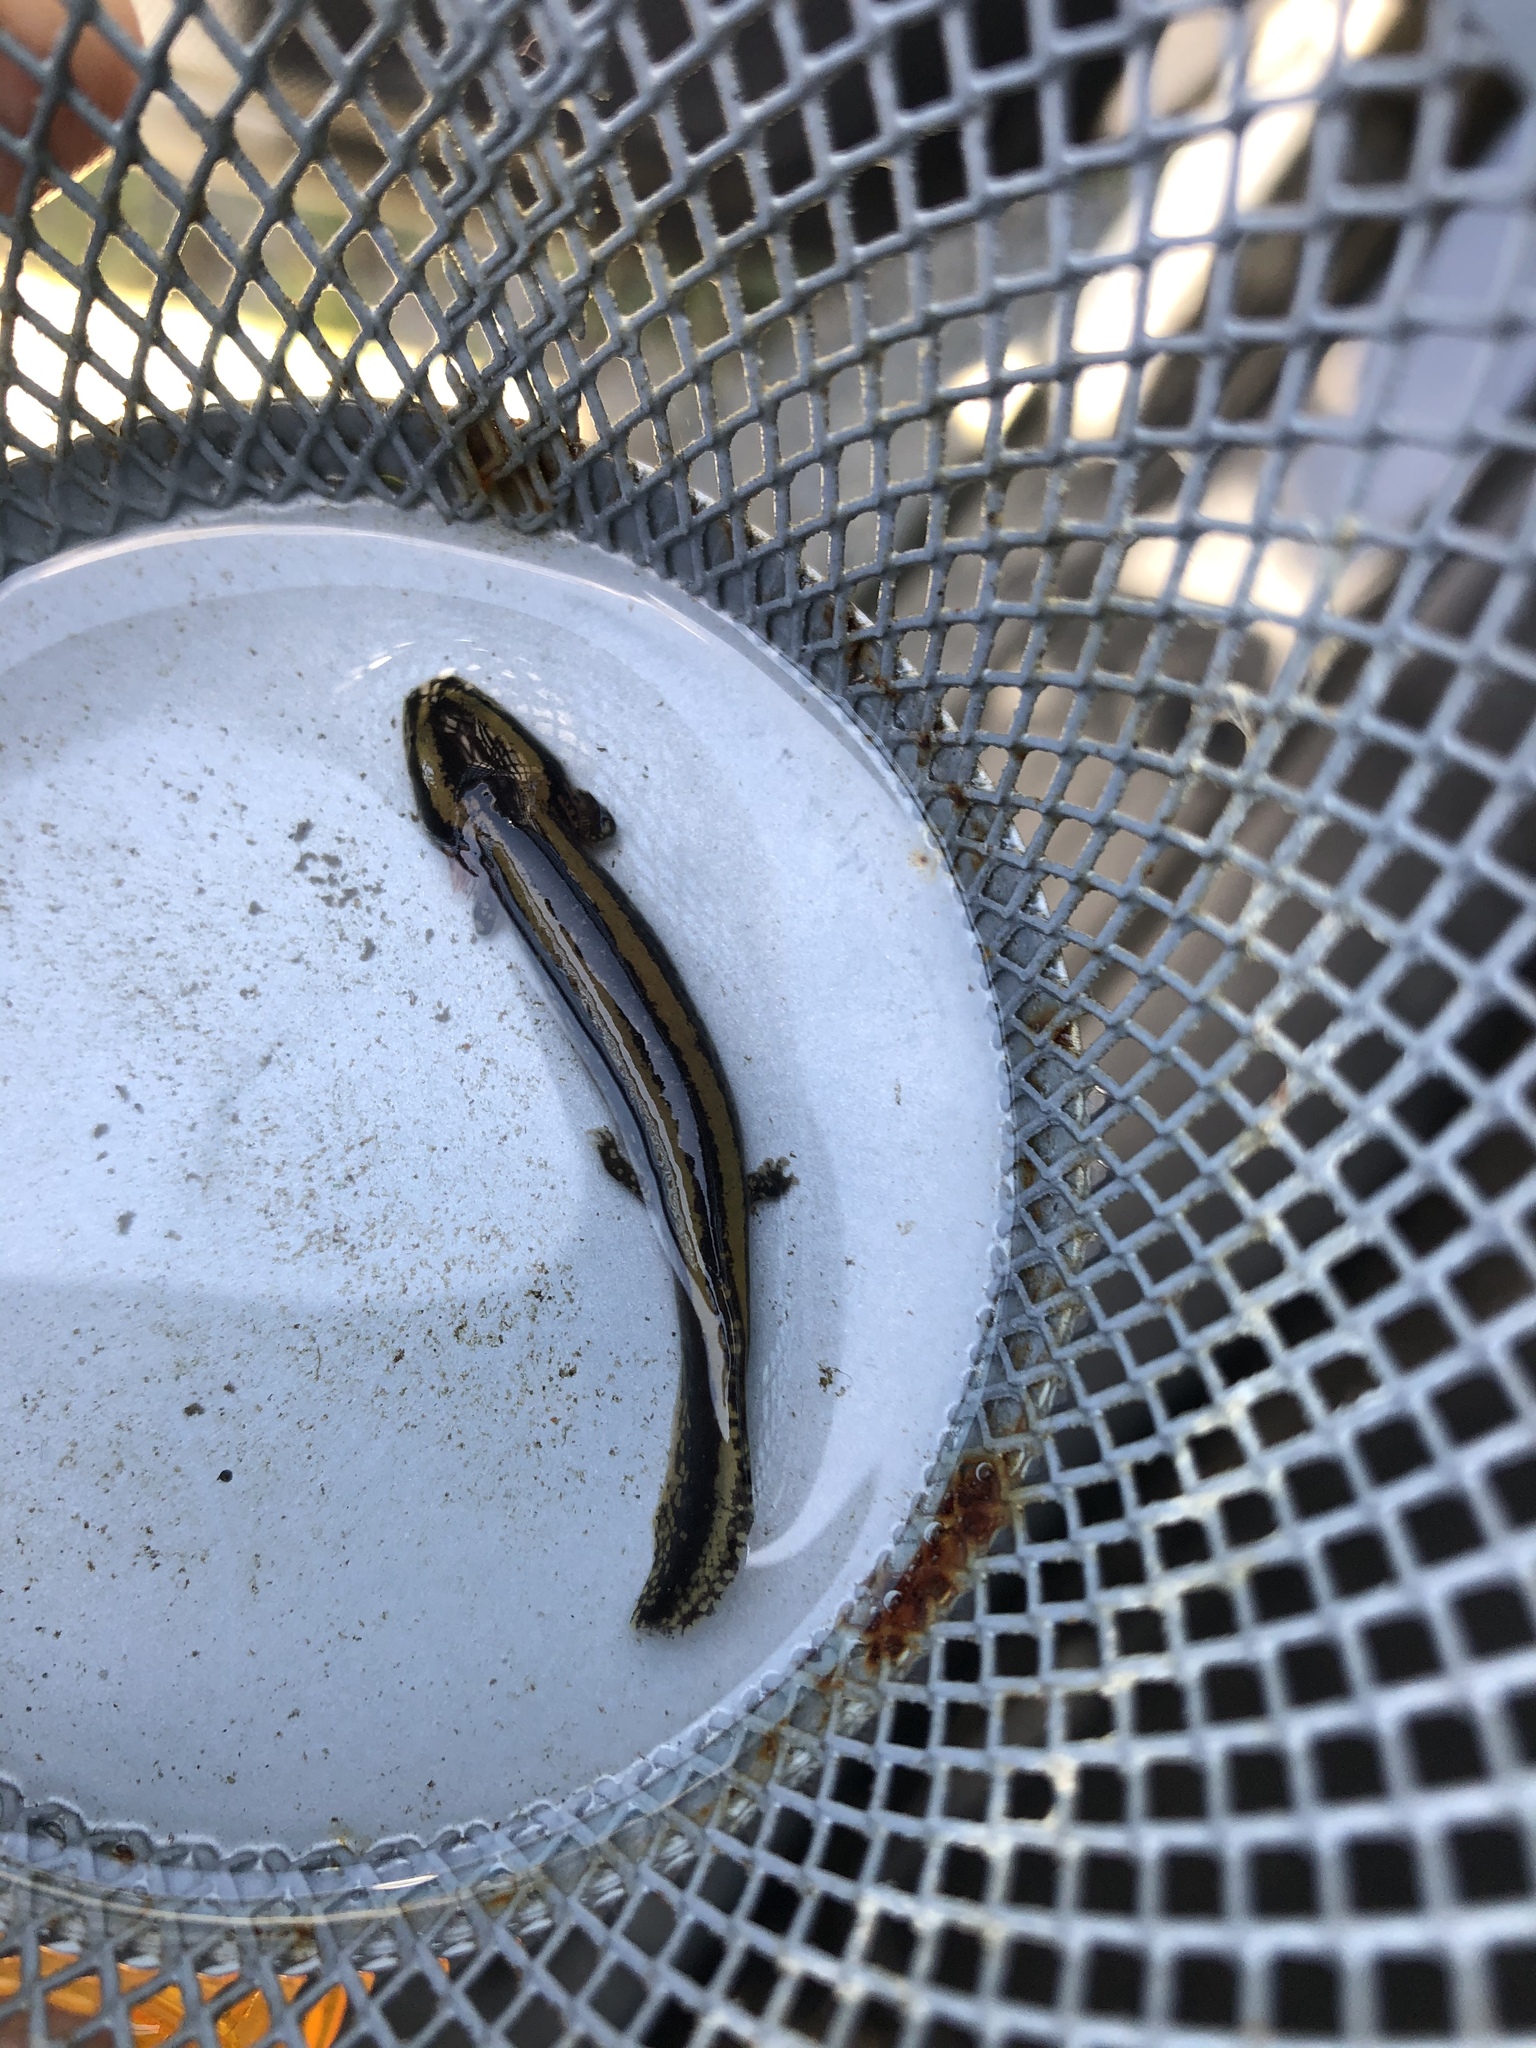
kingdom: Animalia
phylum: Chordata
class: Amphibia
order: Caudata
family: Proteidae
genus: Necturus
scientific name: Necturus maculosus
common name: Mudpuppy
